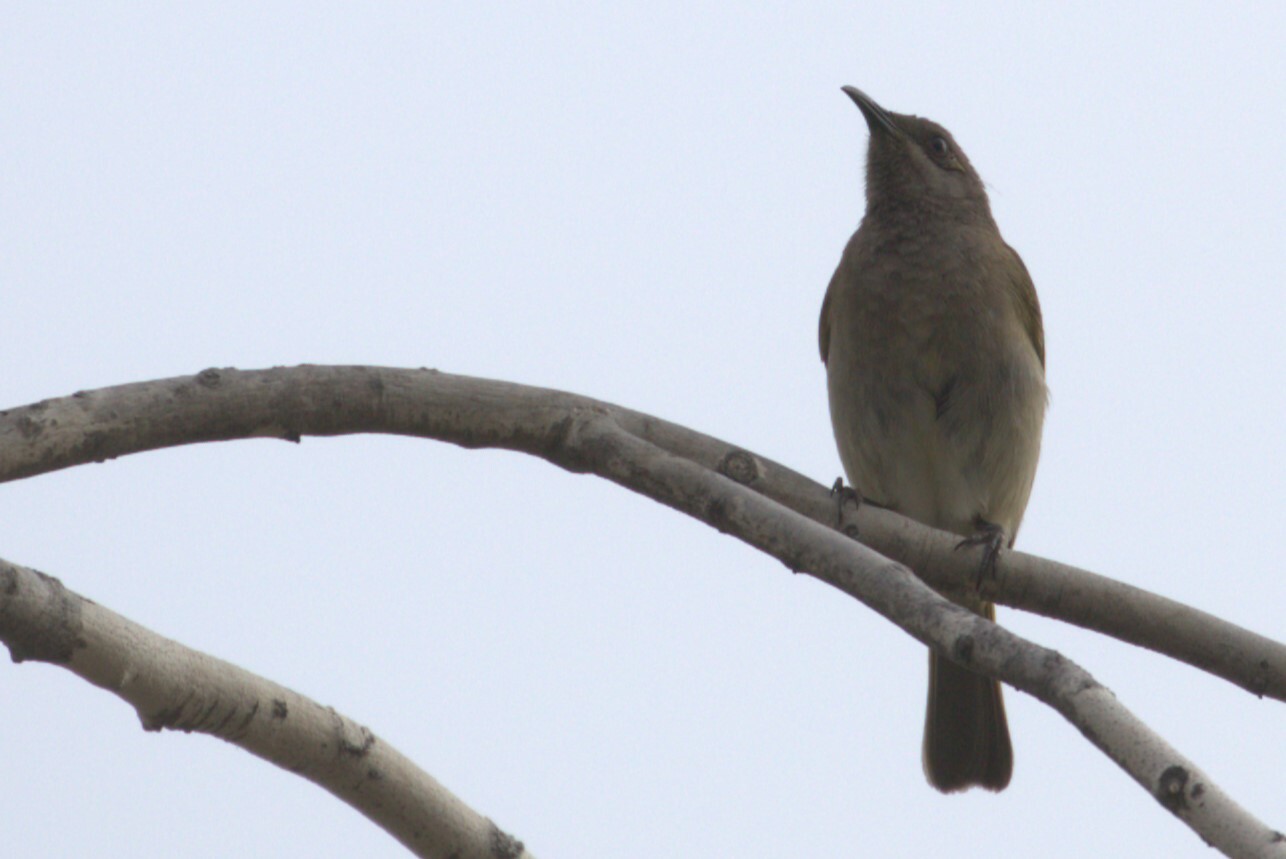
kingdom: Animalia
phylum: Chordata
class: Aves
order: Passeriformes
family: Meliphagidae
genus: Lichmera
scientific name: Lichmera indistincta
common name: Brown honeyeater
